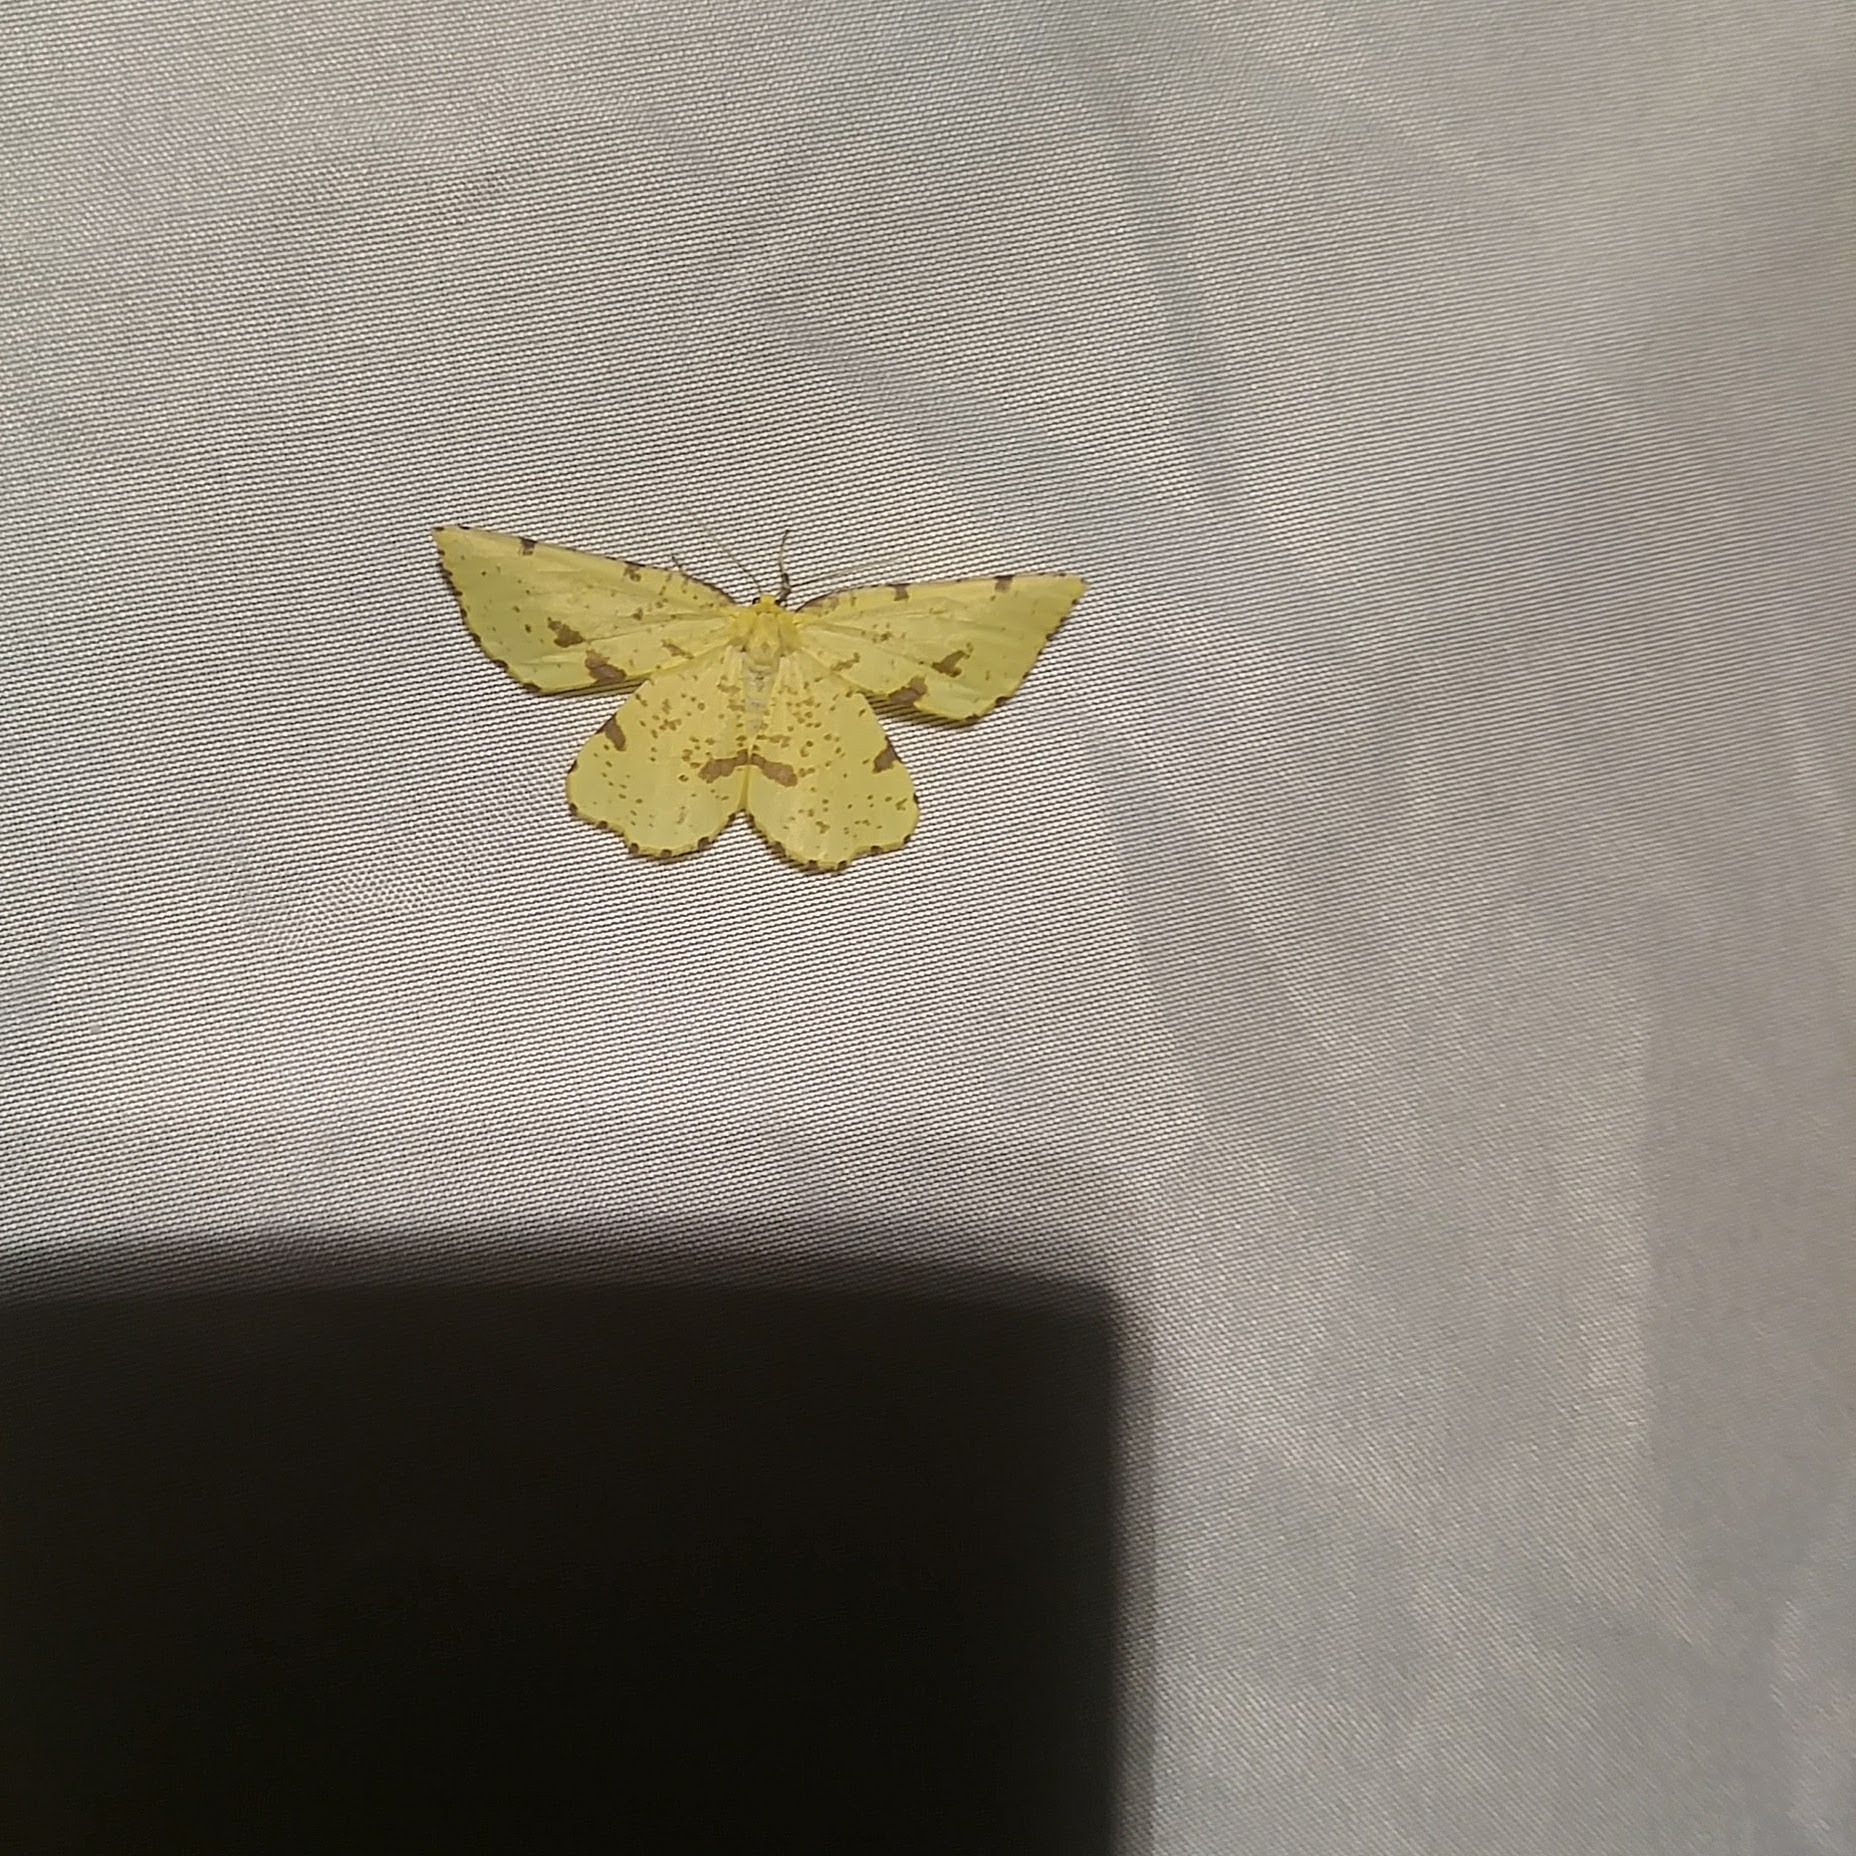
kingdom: Animalia
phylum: Arthropoda
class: Insecta
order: Lepidoptera
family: Geometridae
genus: Xanthotype
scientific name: Xanthotype
